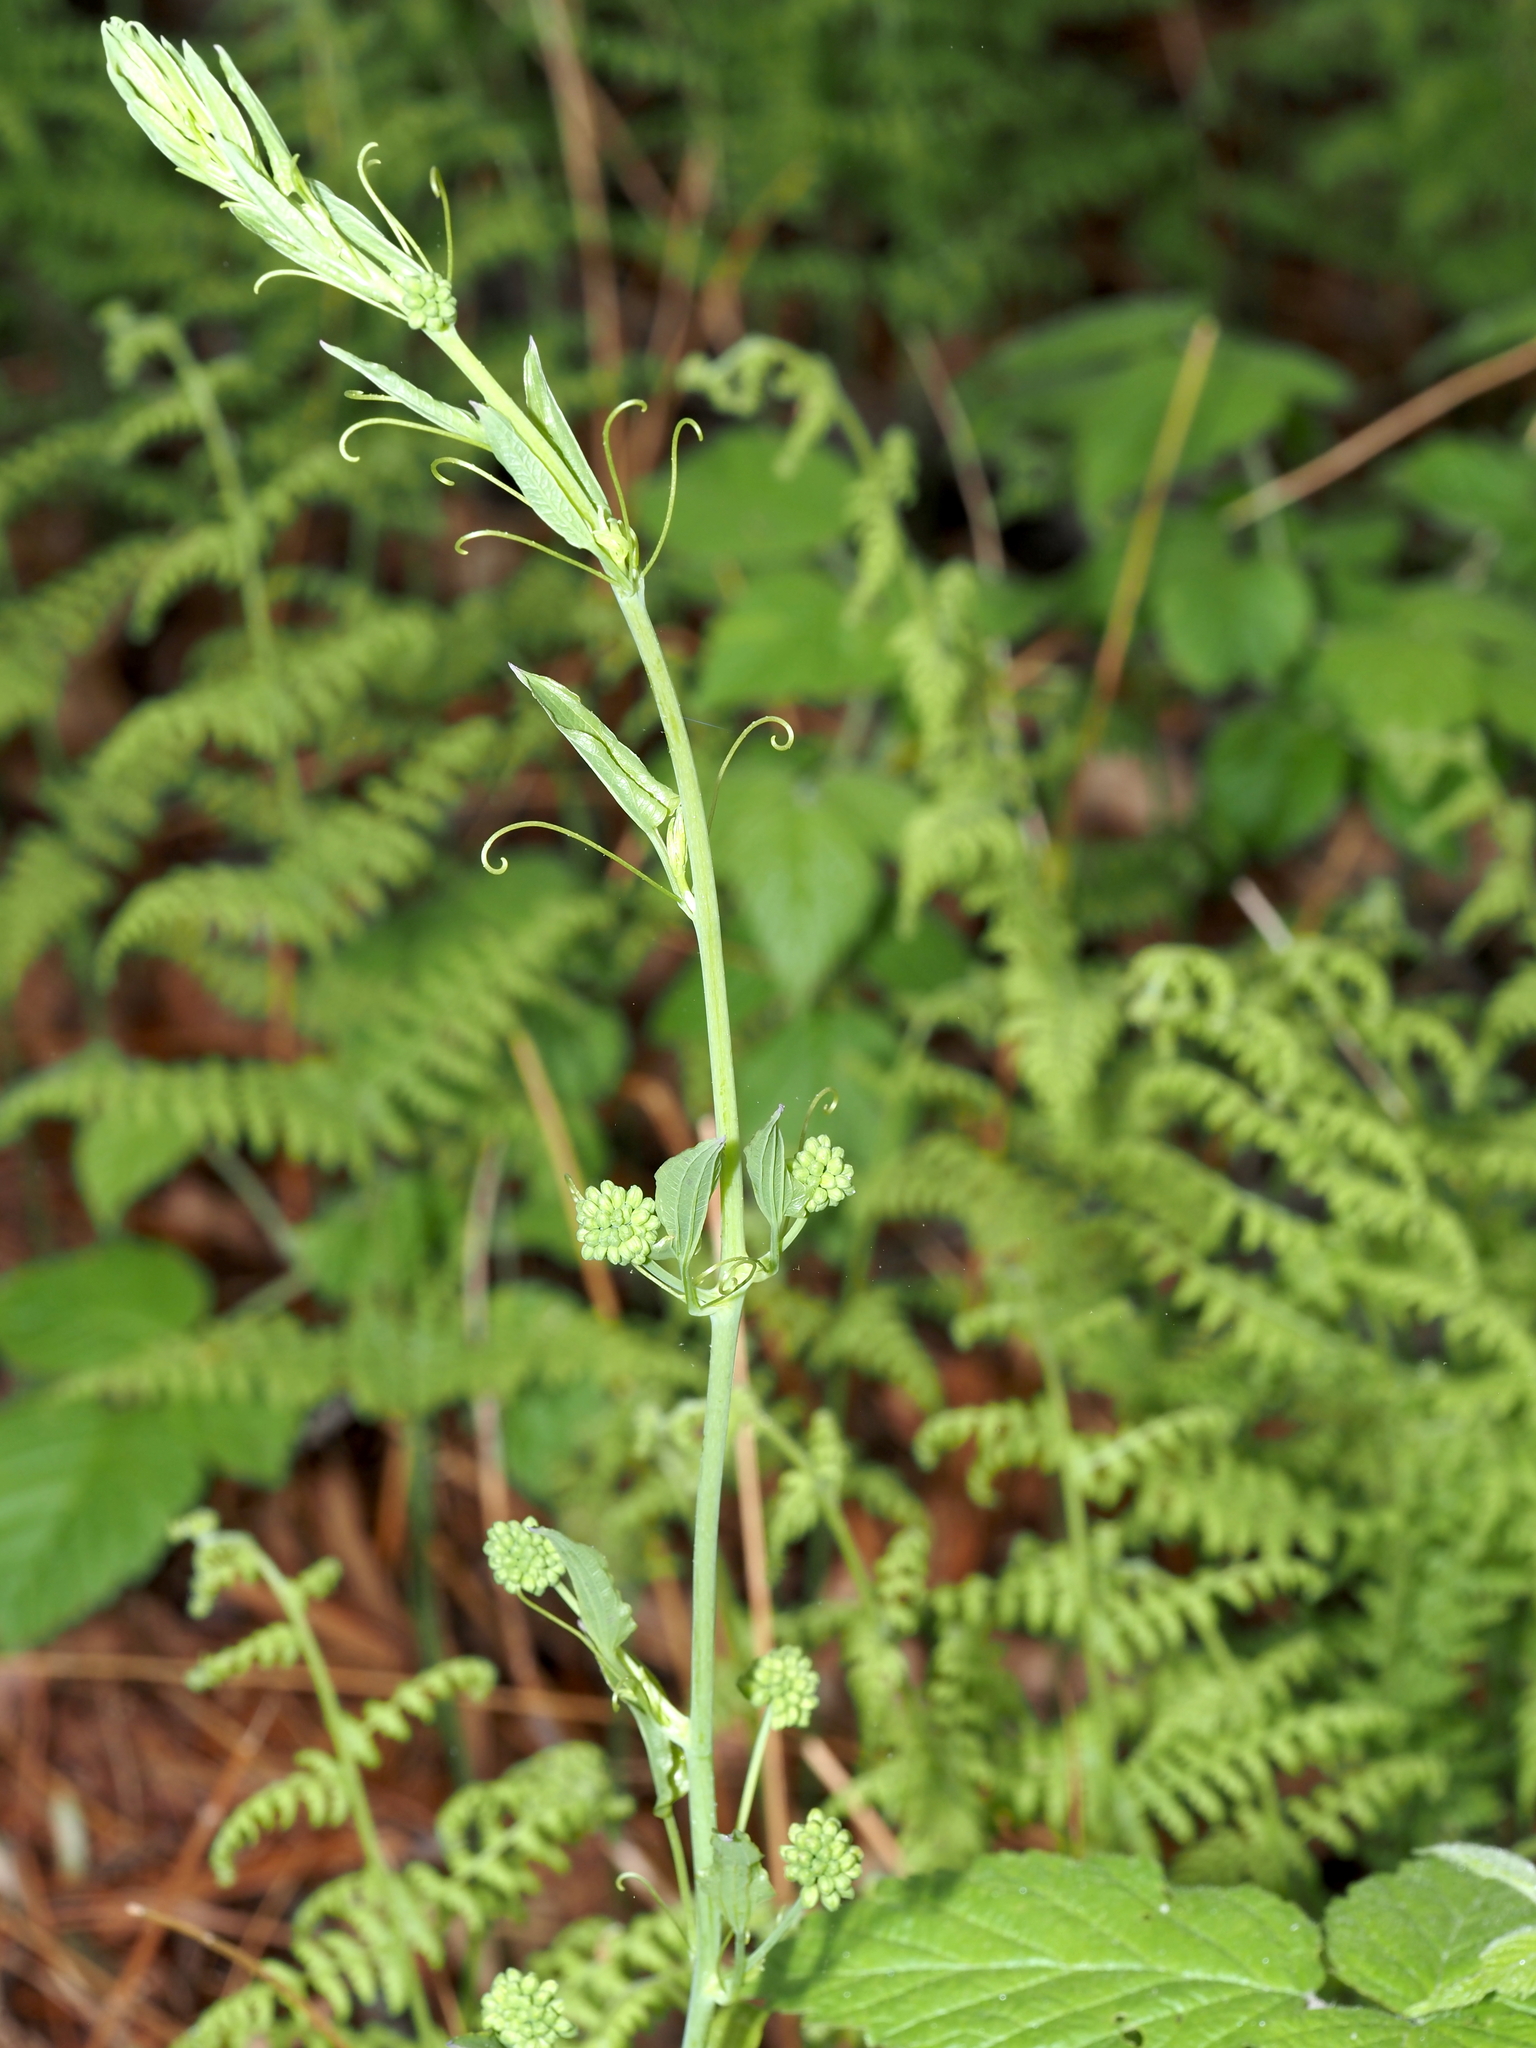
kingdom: Plantae
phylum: Tracheophyta
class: Liliopsida
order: Liliales
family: Smilacaceae
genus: Smilax
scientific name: Smilax herbacea
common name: Jacob's-ladder
